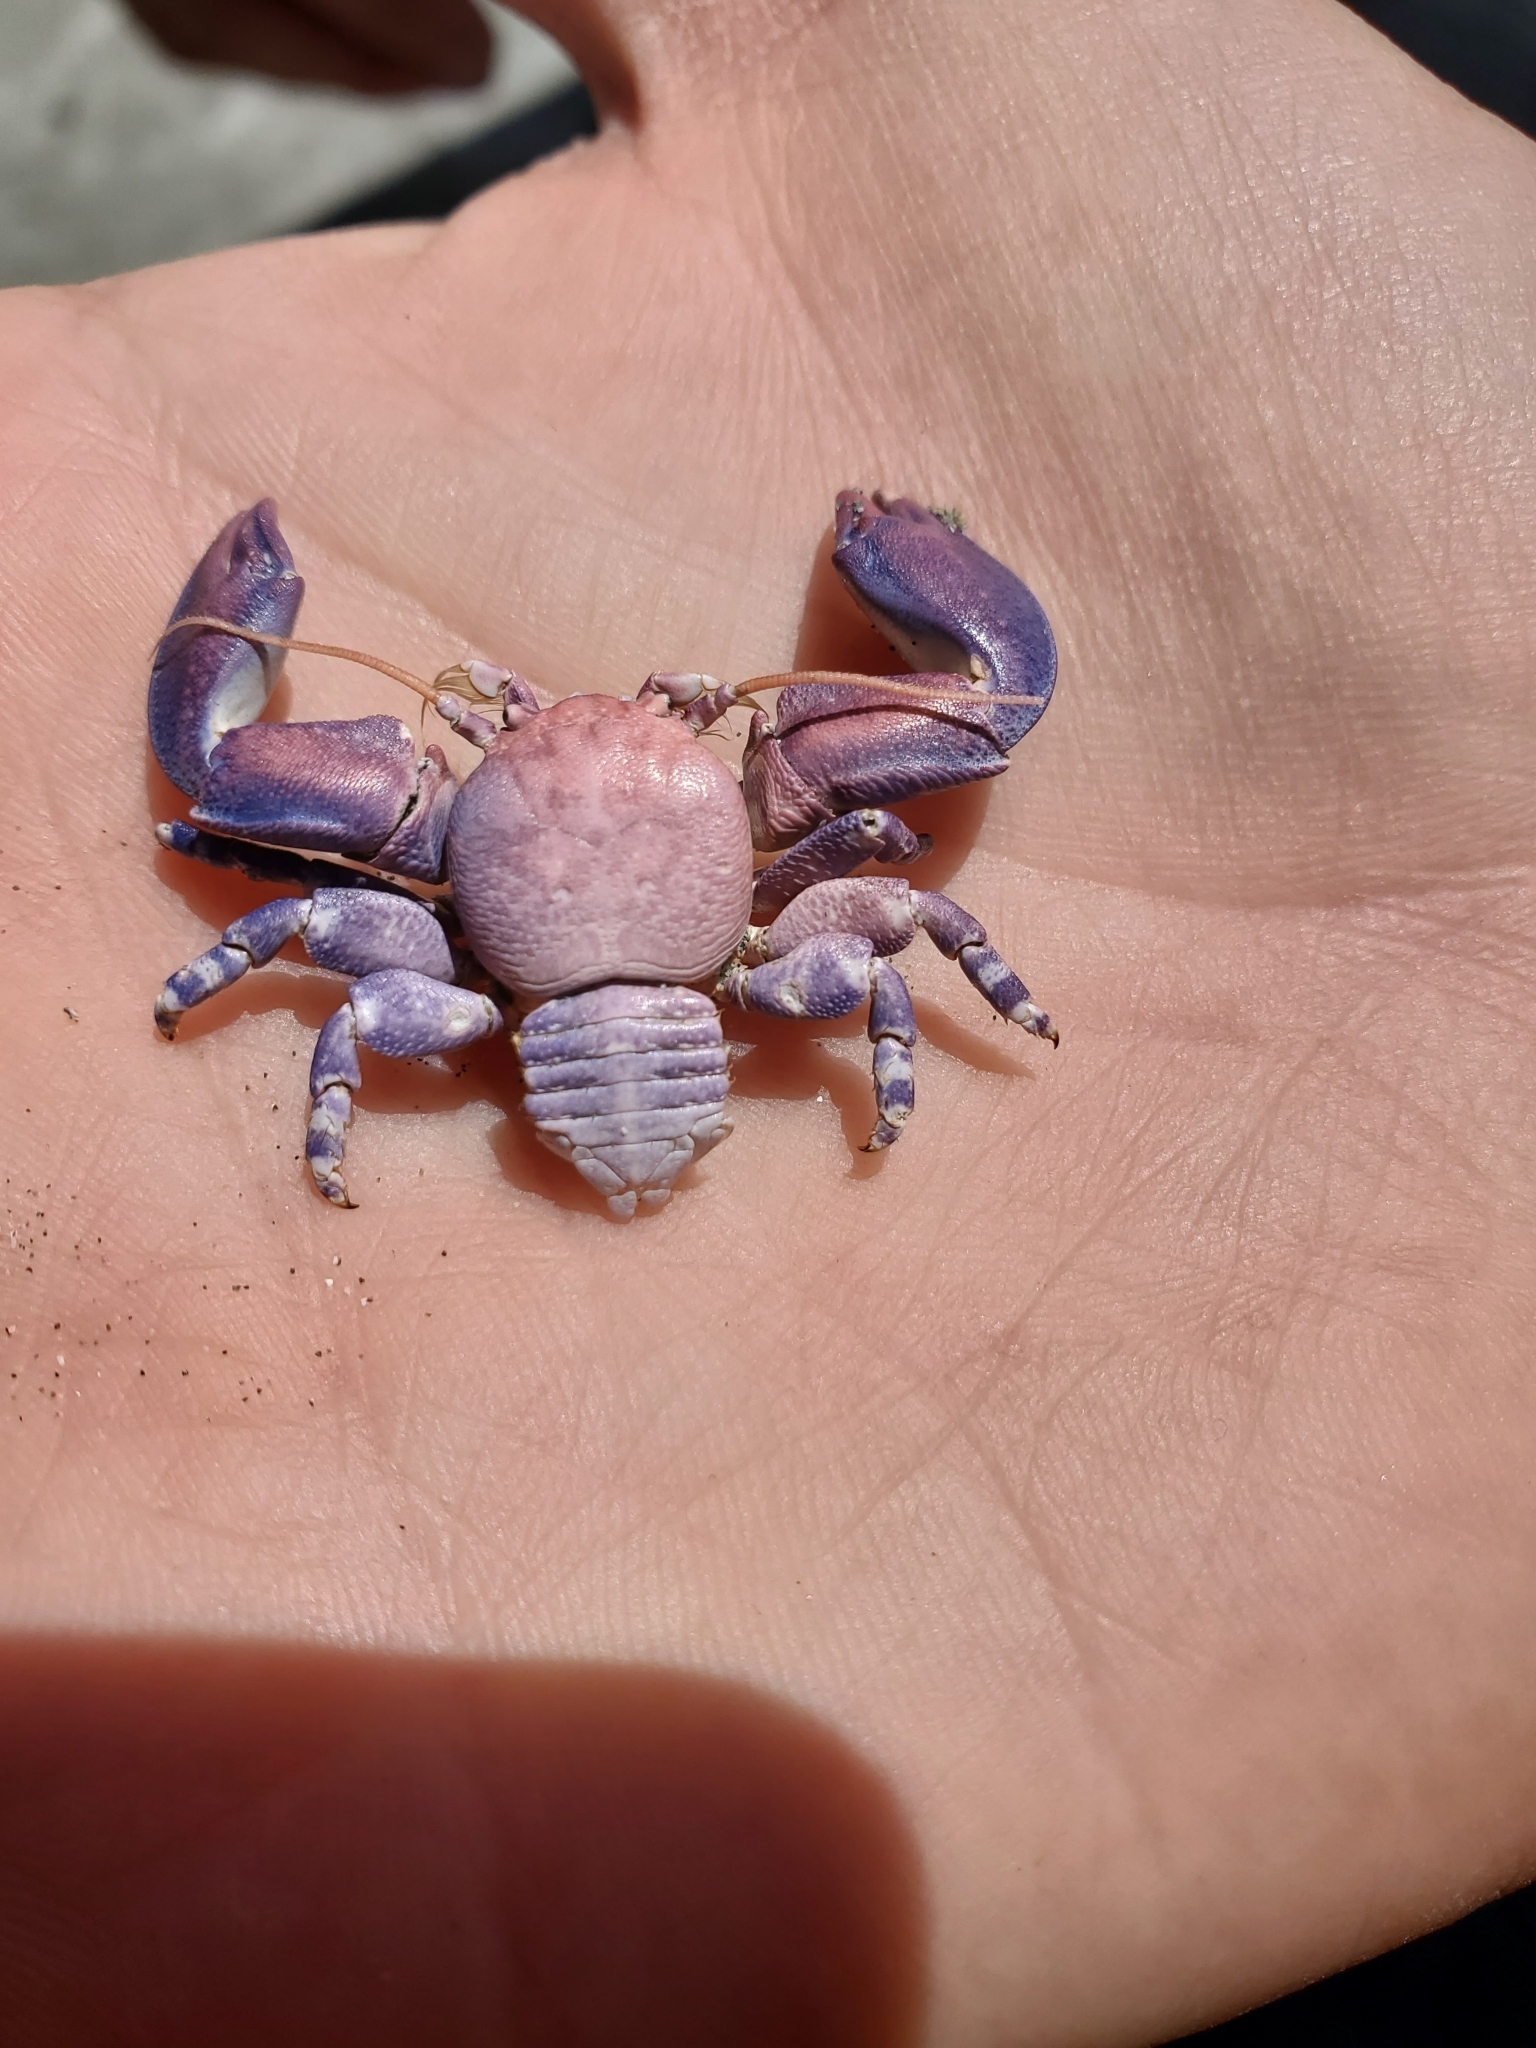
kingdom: Animalia
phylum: Arthropoda
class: Malacostraca
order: Decapoda
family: Porcellanidae
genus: Petrolisthes
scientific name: Petrolisthes cinctipes
